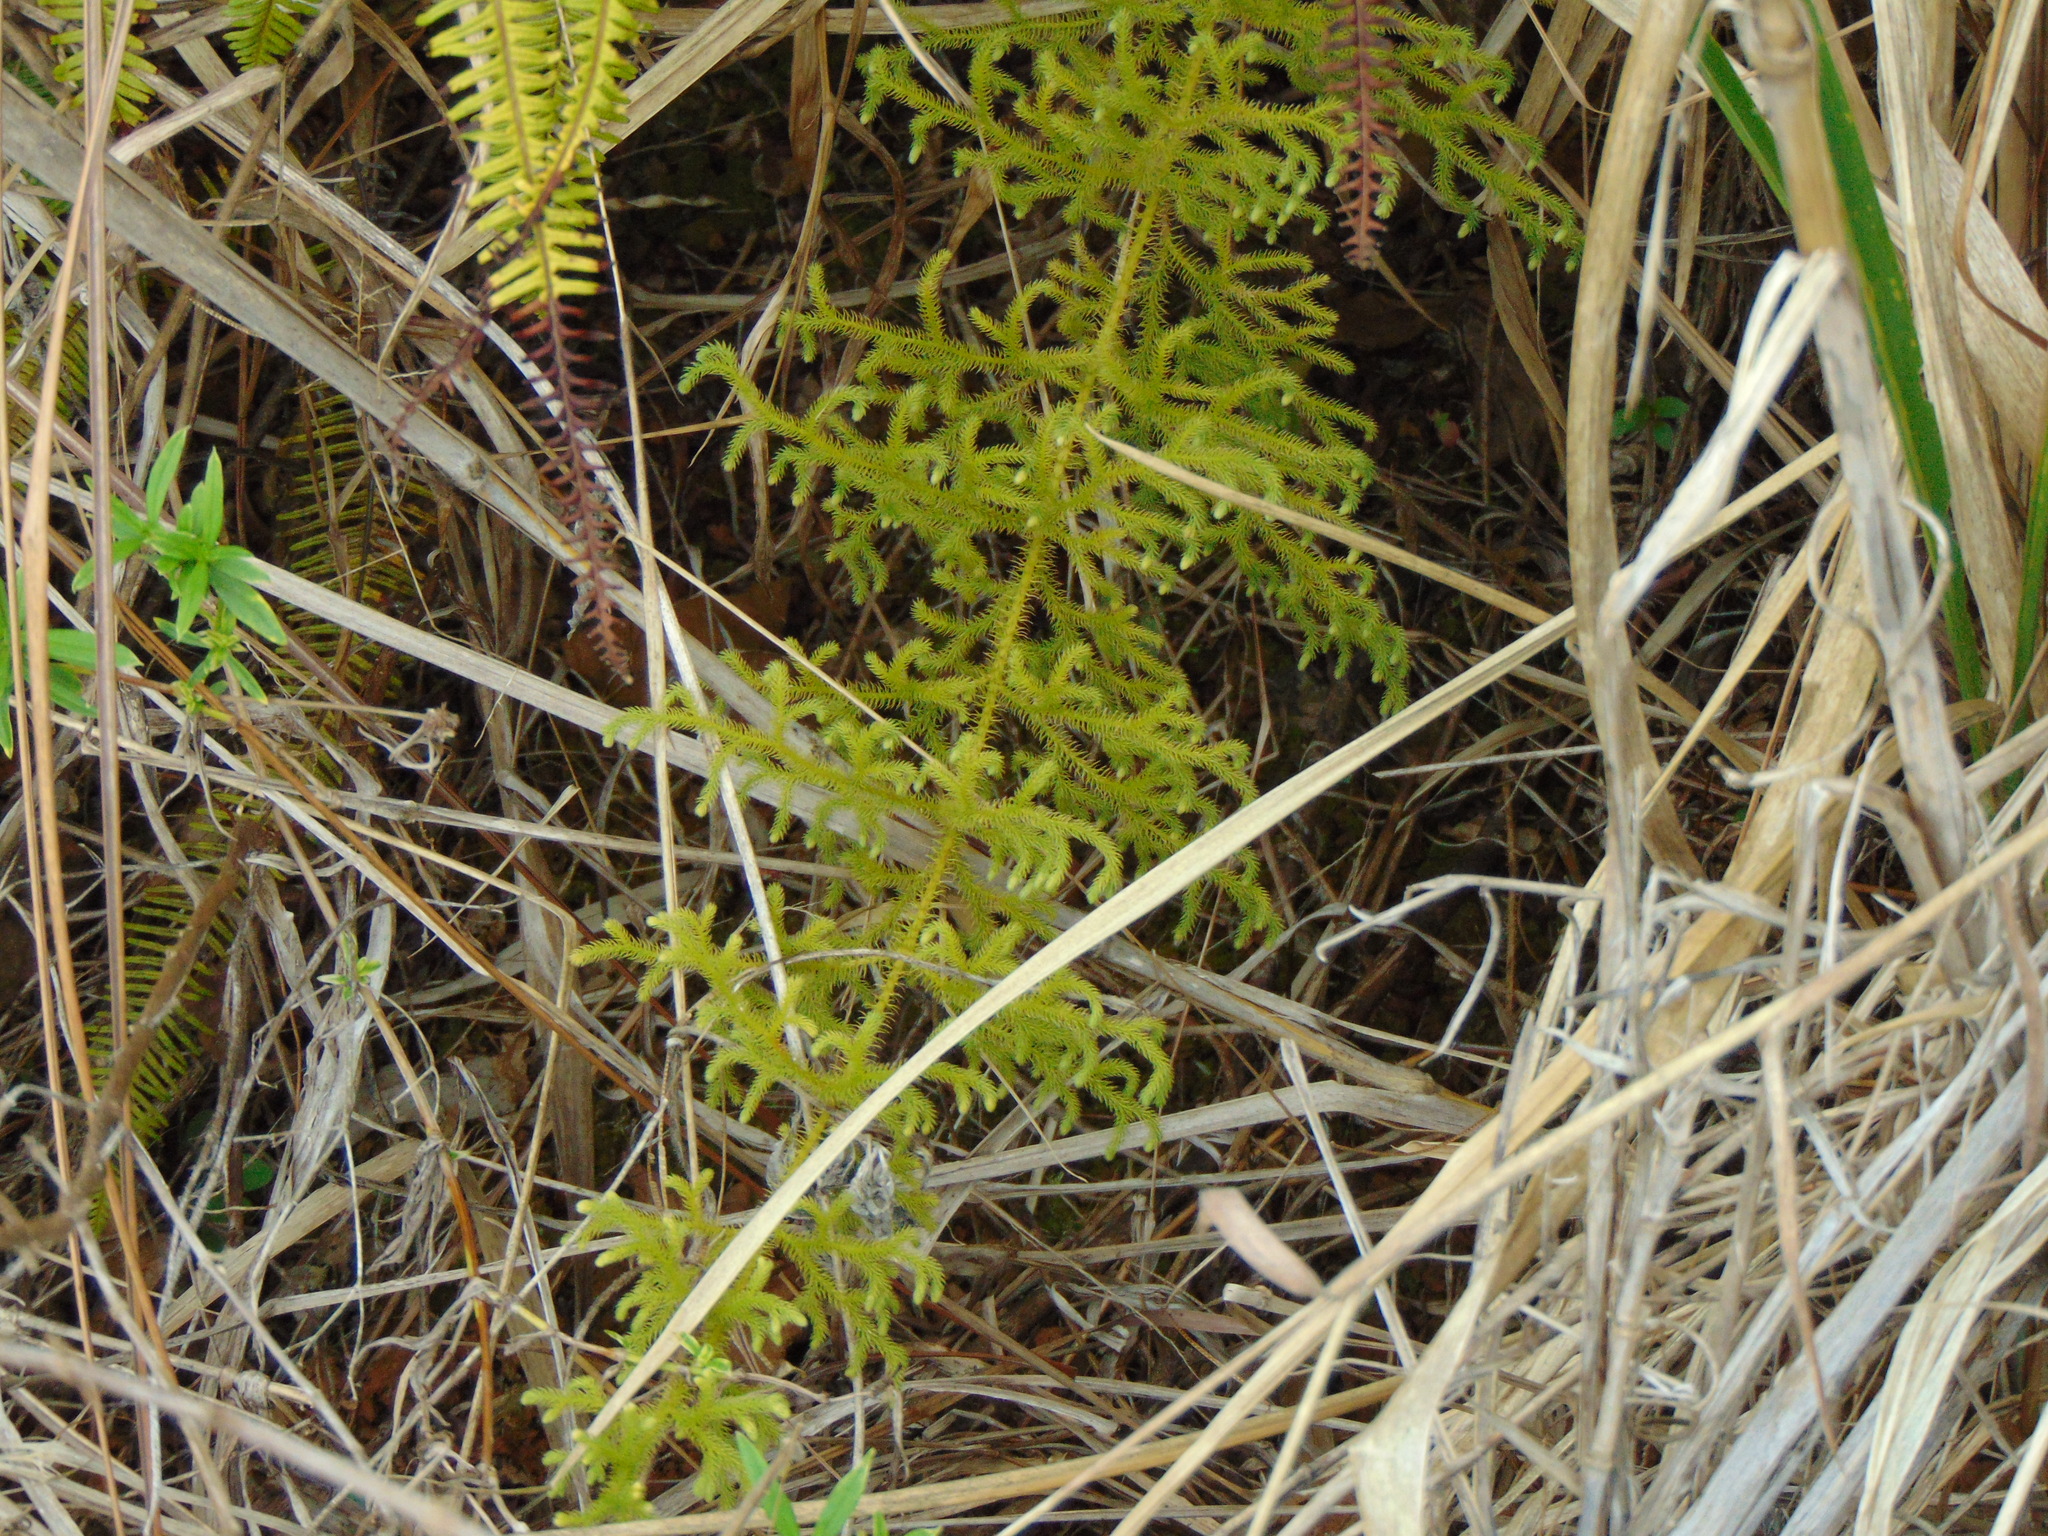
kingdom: Plantae
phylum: Tracheophyta
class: Lycopodiopsida
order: Lycopodiales
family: Lycopodiaceae
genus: Palhinhaea
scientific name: Palhinhaea cernua
